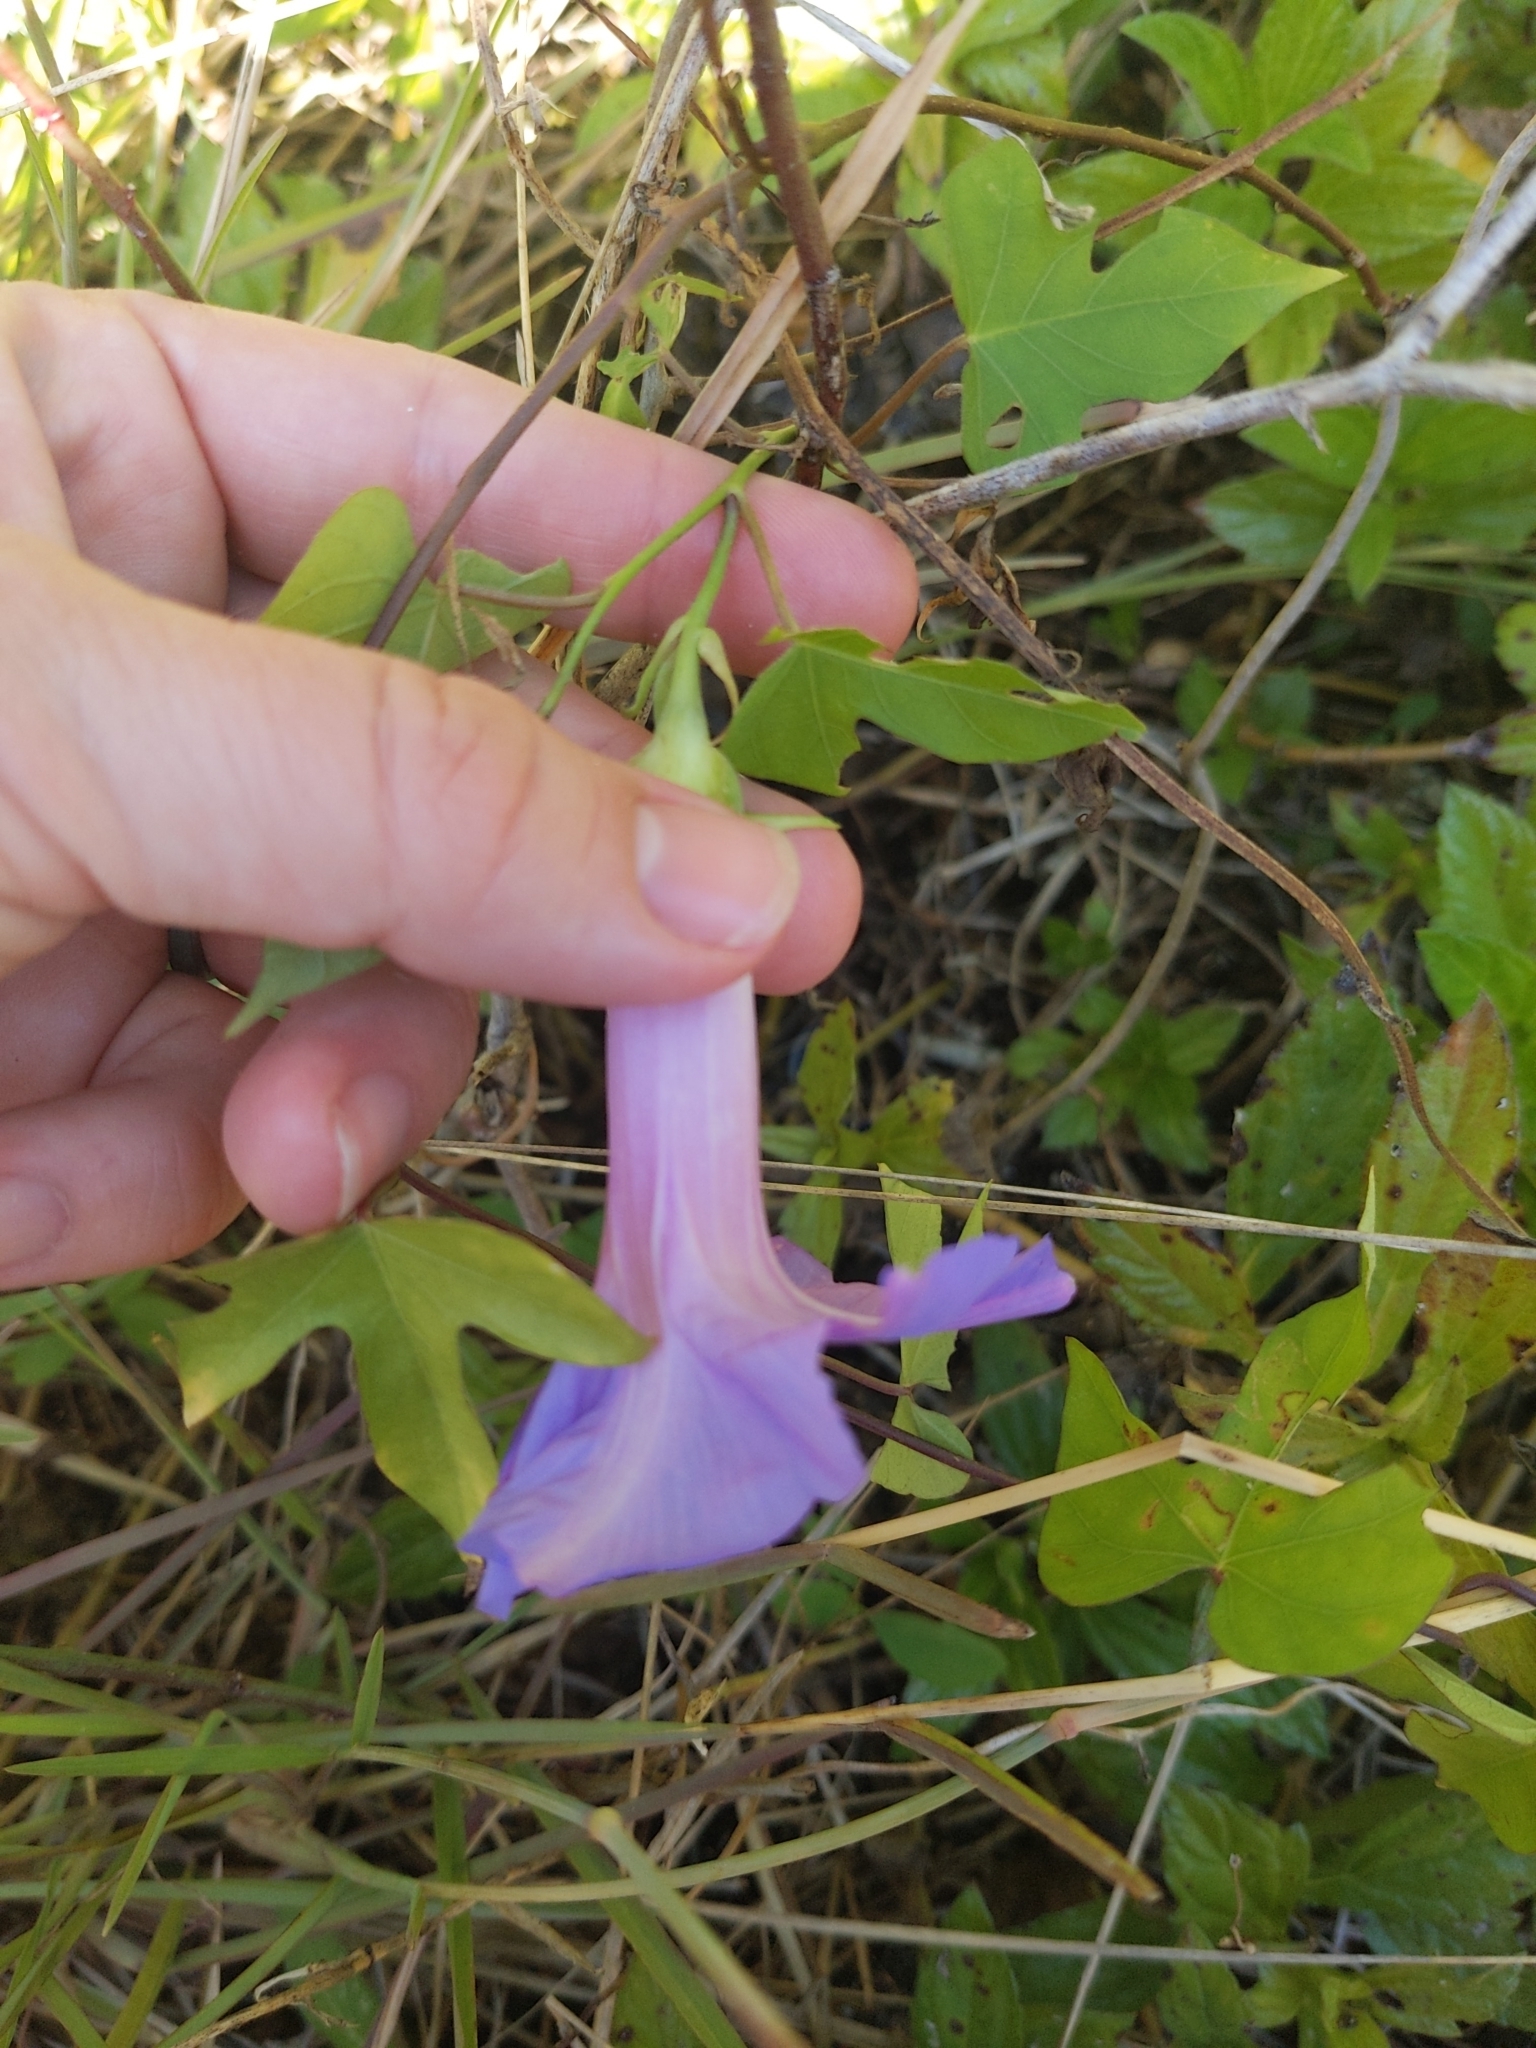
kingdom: Plantae
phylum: Tracheophyta
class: Magnoliopsida
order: Solanales
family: Convolvulaceae
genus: Ipomoea
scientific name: Ipomoea indica
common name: Blue dawnflower
